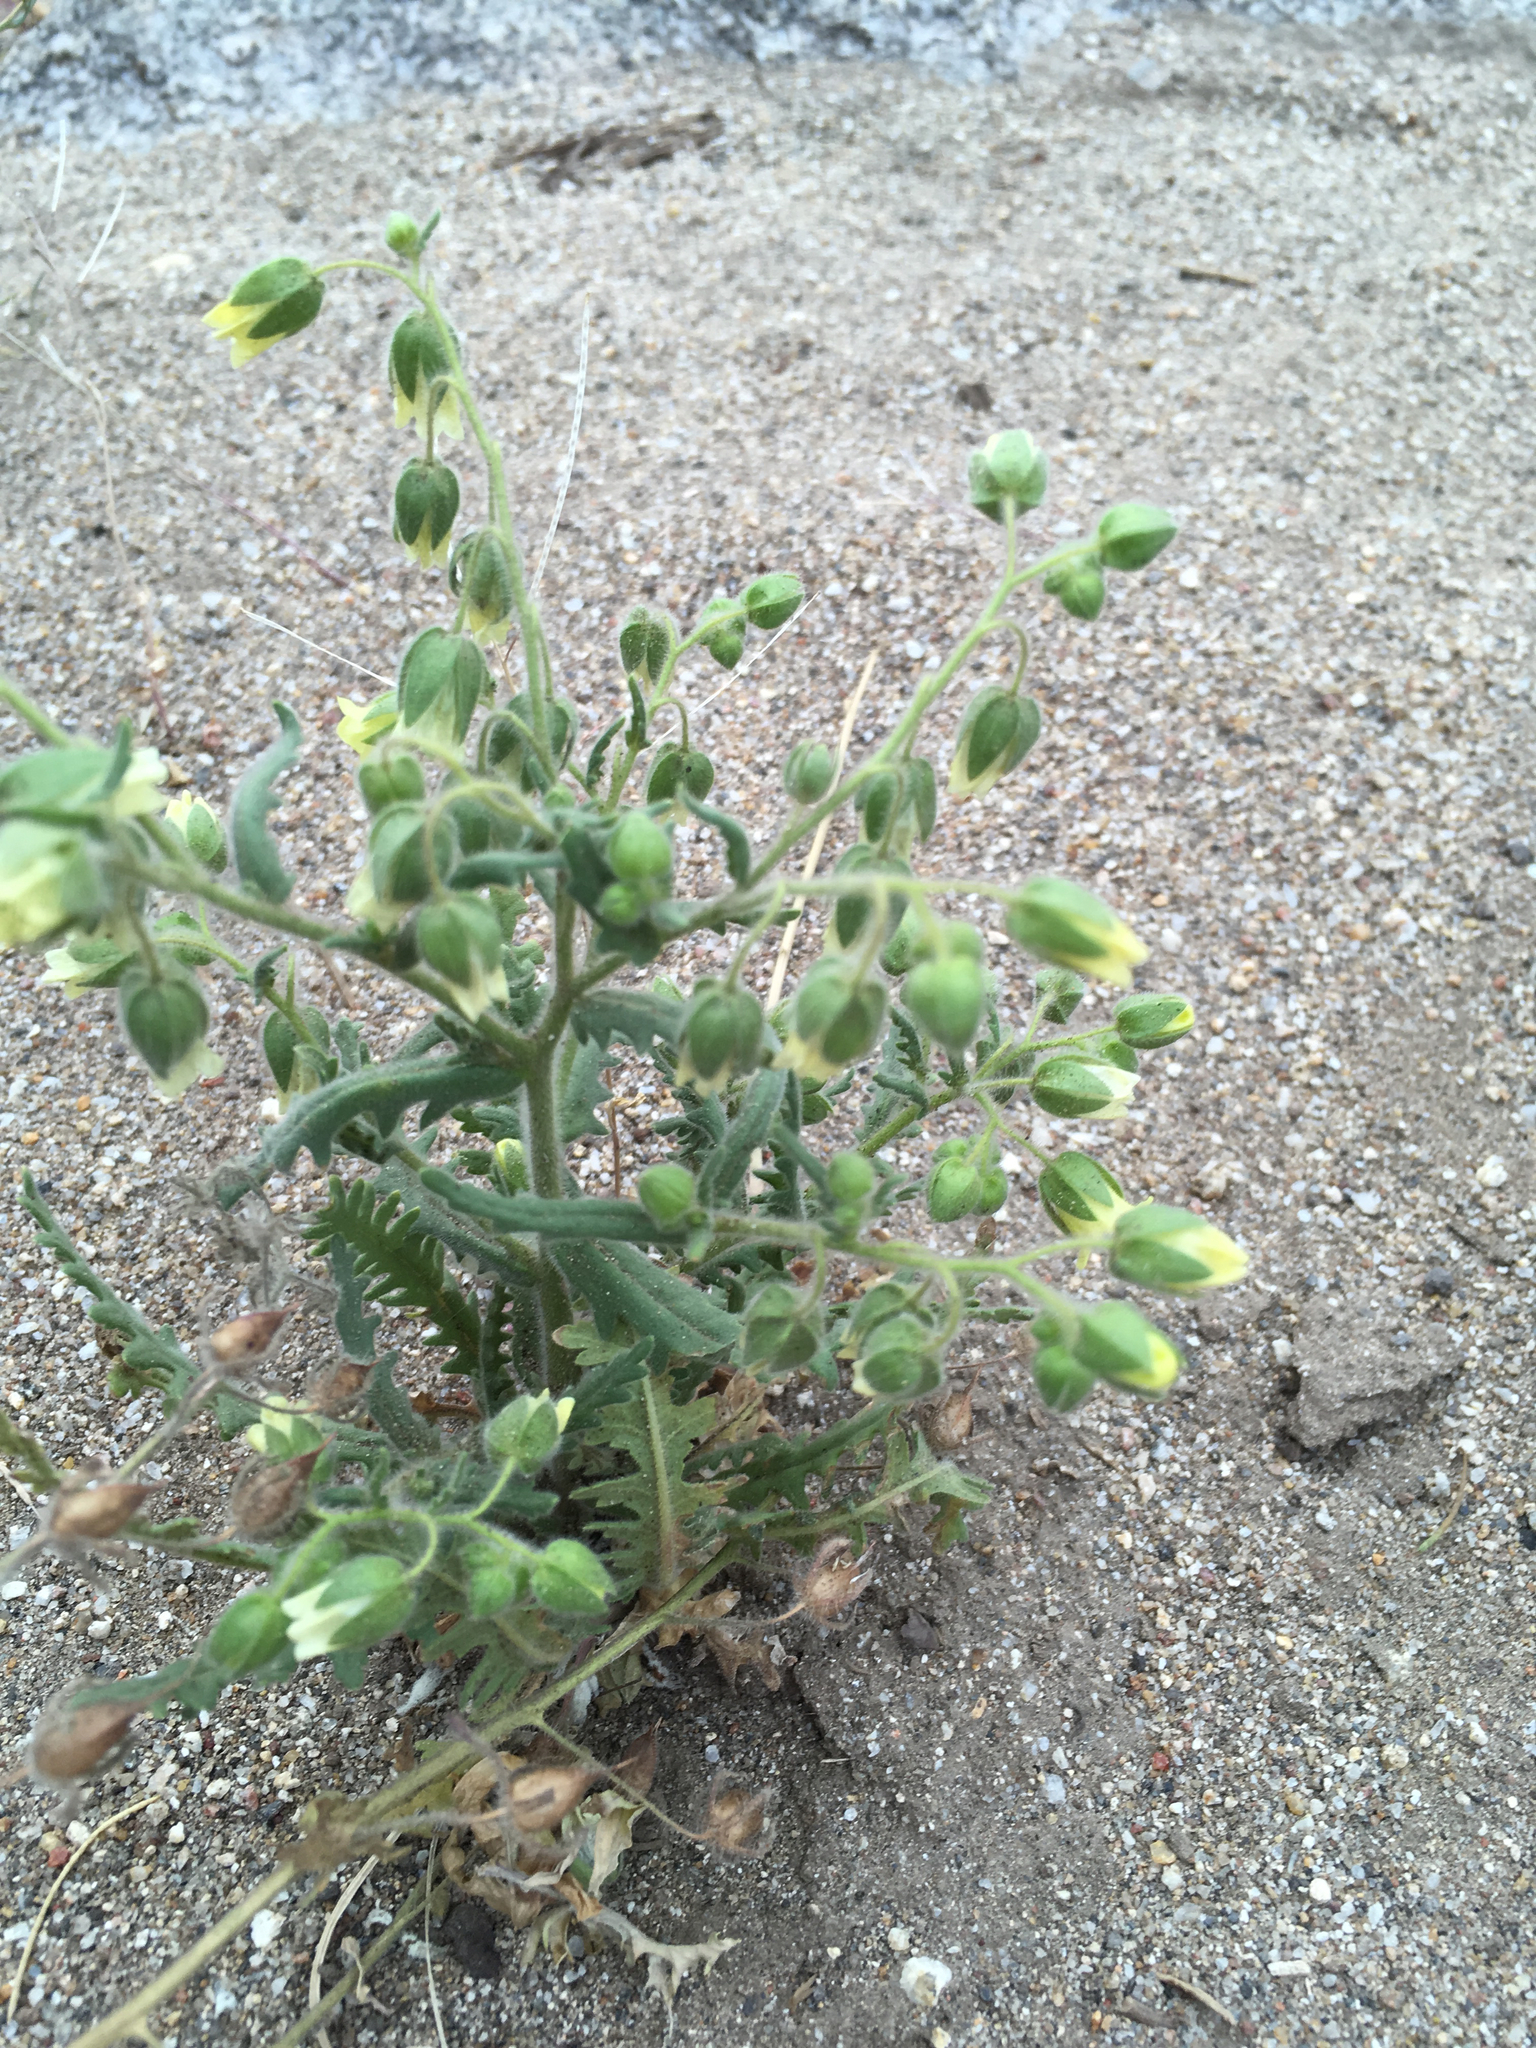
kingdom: Plantae
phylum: Tracheophyta
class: Magnoliopsida
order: Boraginales
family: Hydrophyllaceae
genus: Emmenanthe
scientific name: Emmenanthe penduliflora
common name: Whispering-bells
